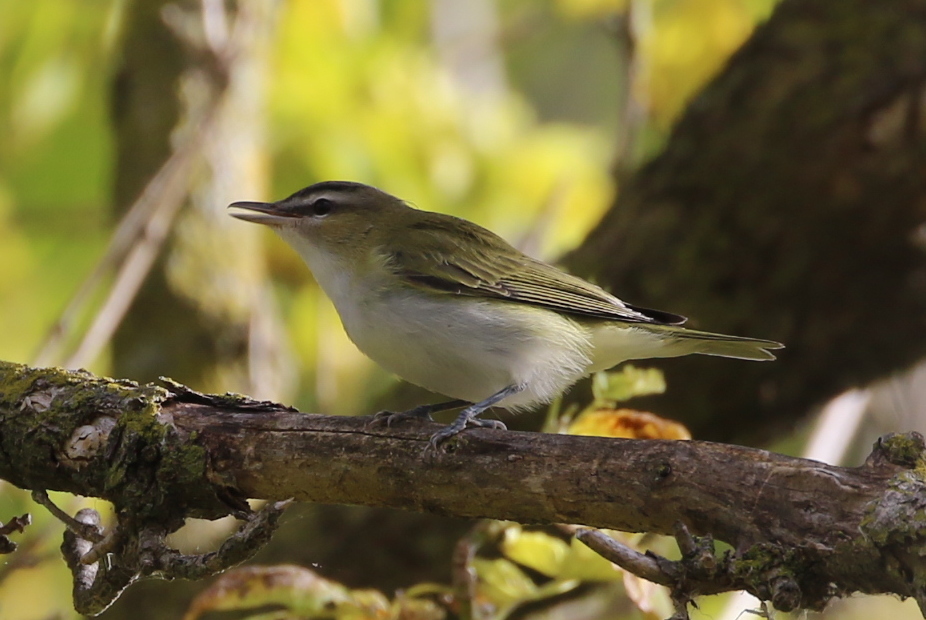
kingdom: Animalia
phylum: Chordata
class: Aves
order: Passeriformes
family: Vireonidae
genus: Vireo
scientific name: Vireo olivaceus
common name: Red-eyed vireo
